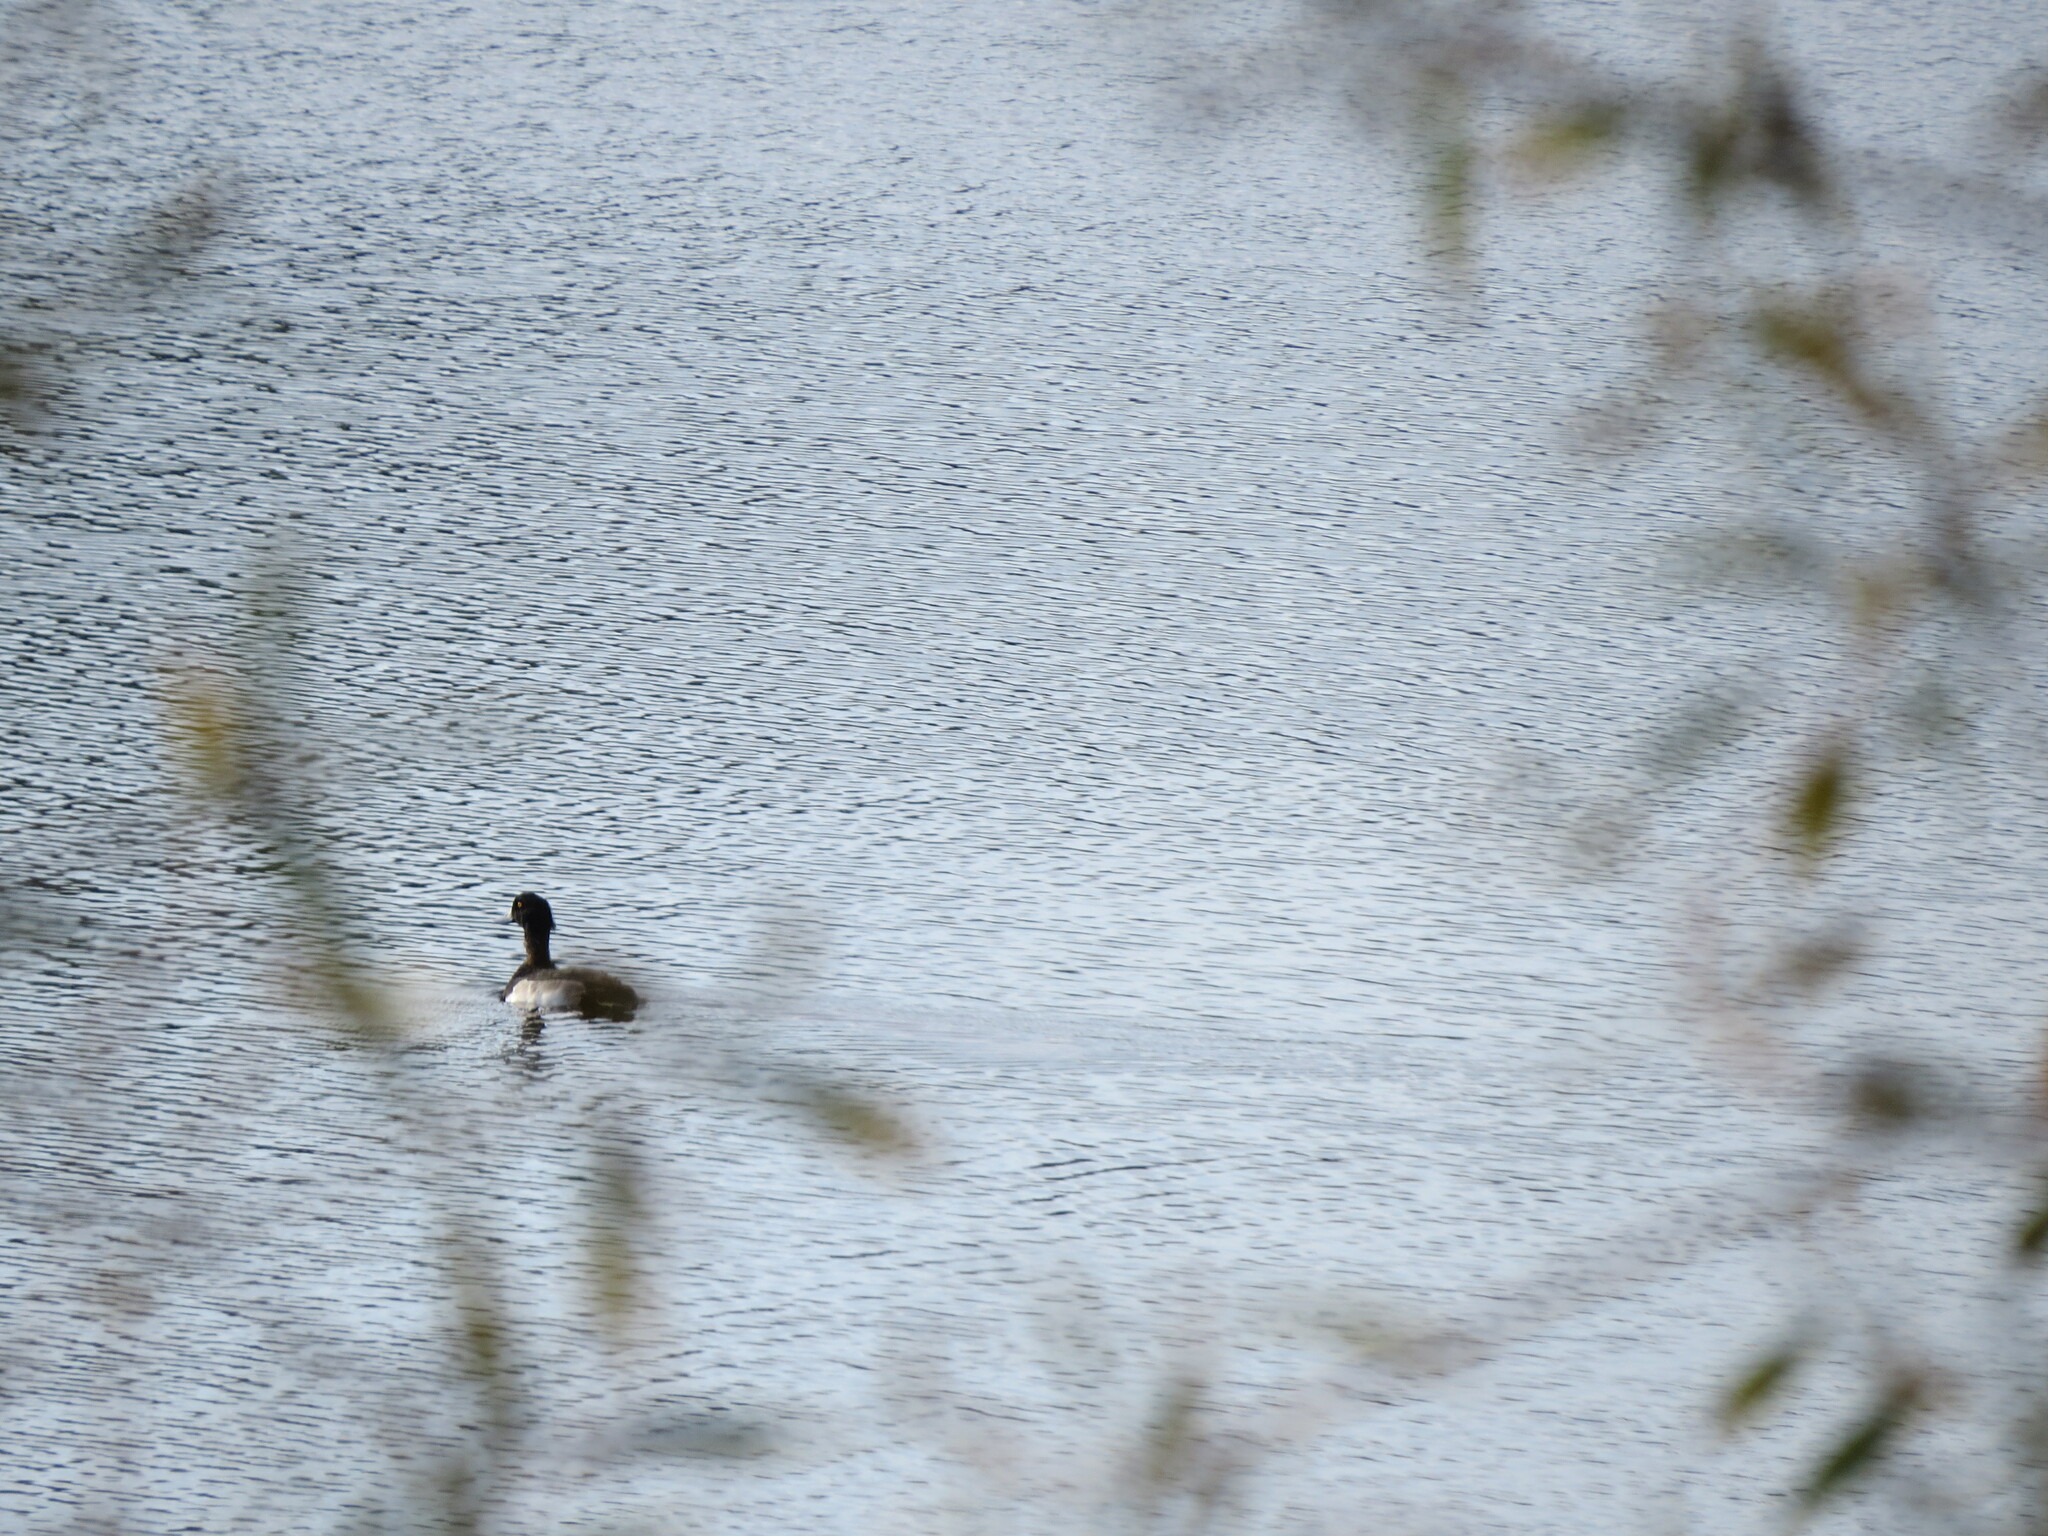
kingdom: Animalia
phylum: Chordata
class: Aves
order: Anseriformes
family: Anatidae
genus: Aythya
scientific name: Aythya fuligula
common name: Tufted duck
